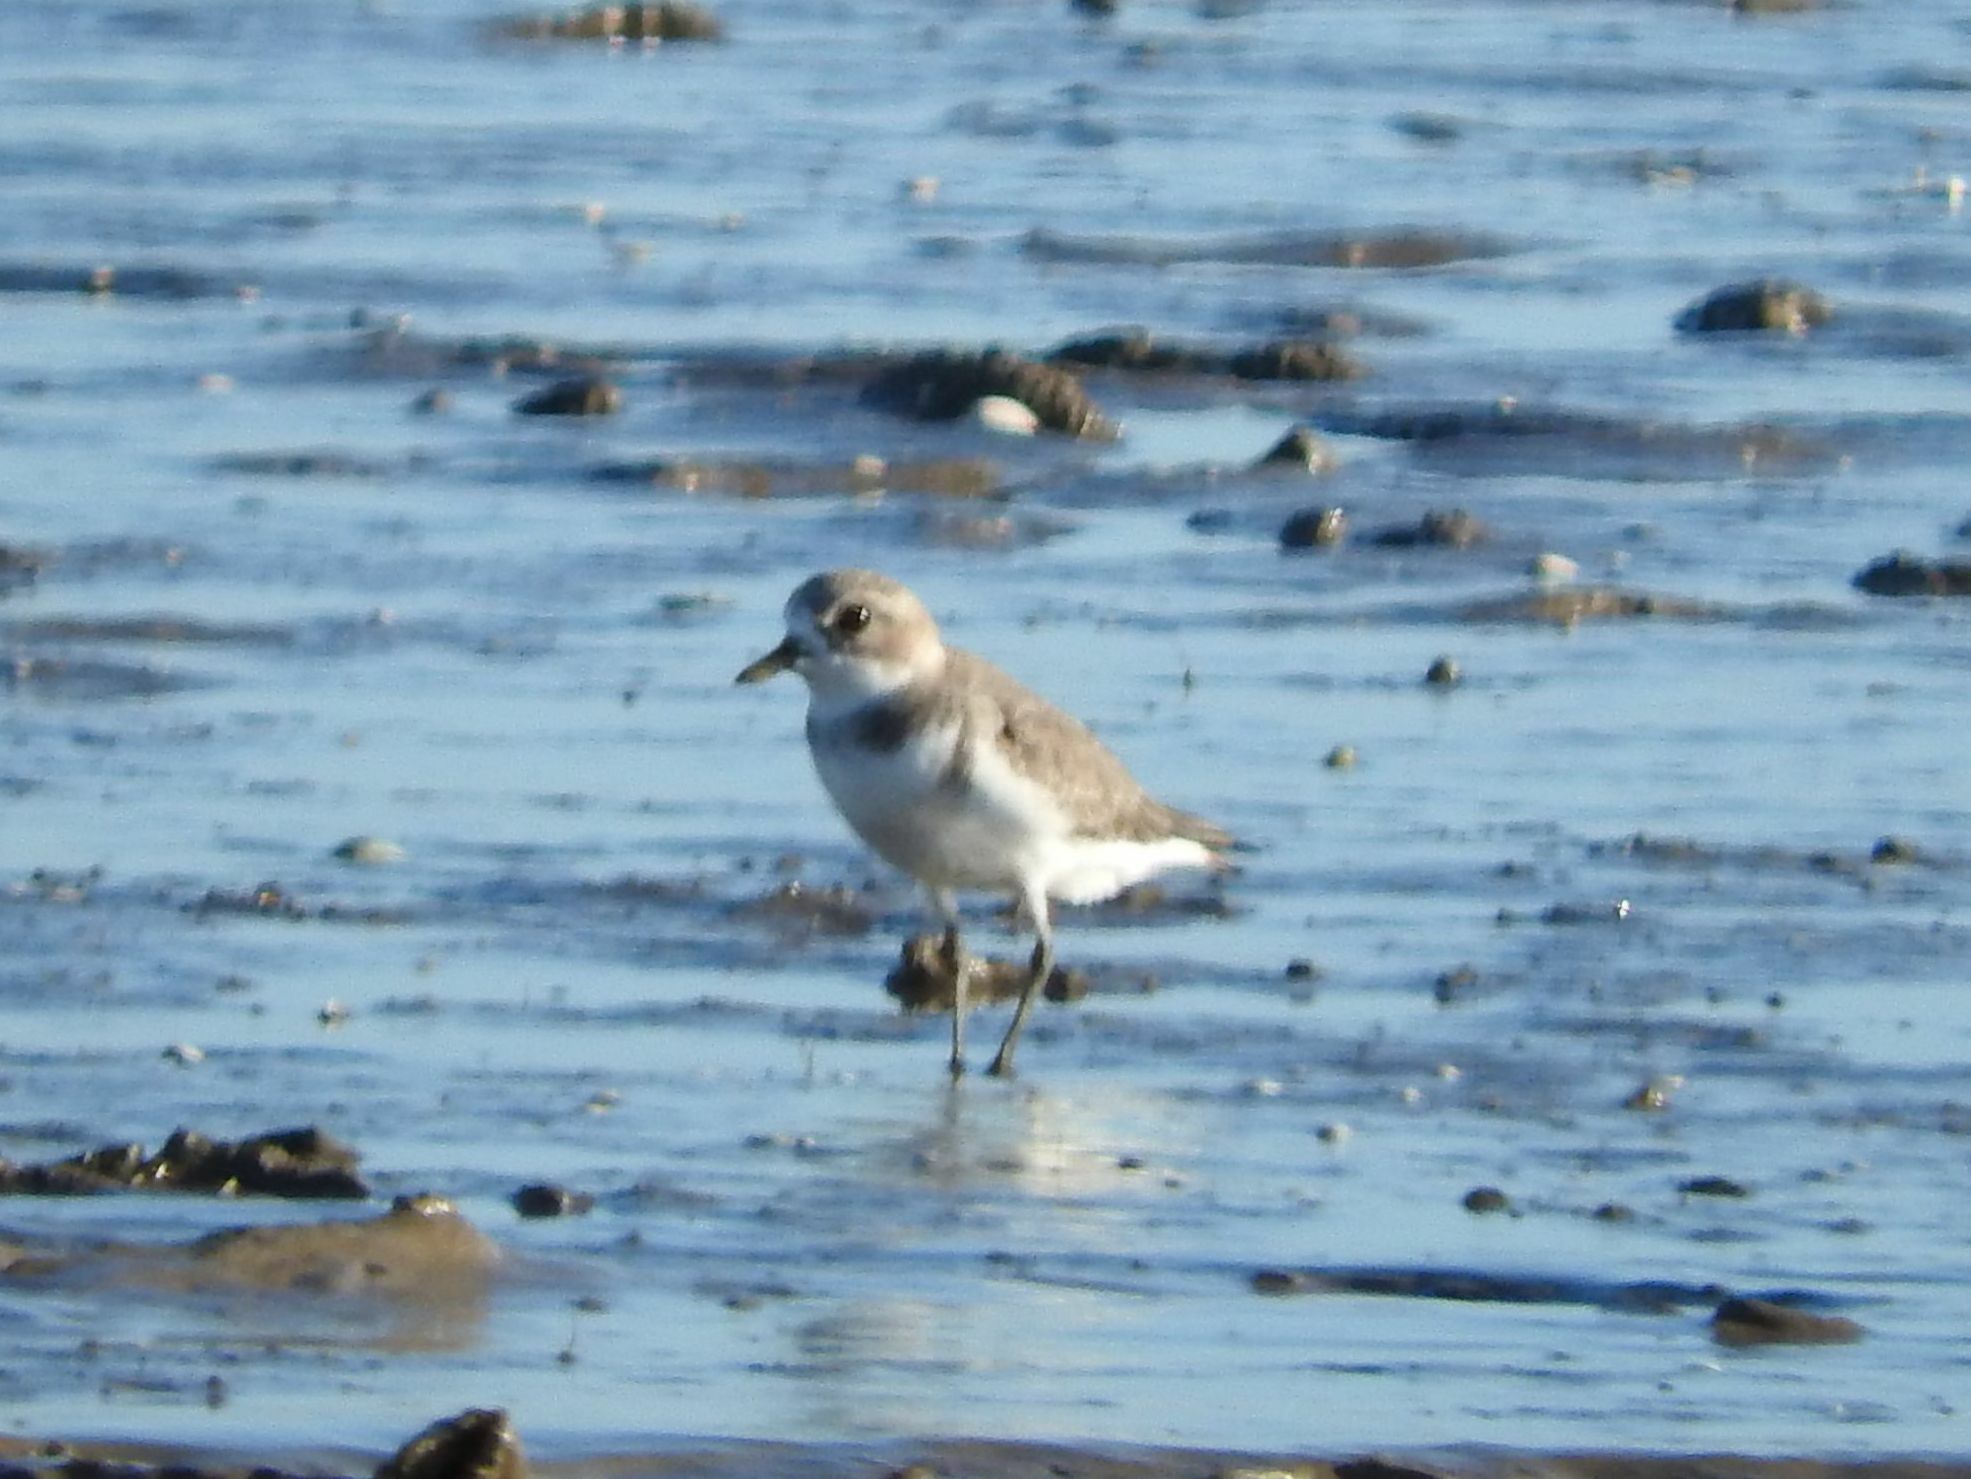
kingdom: Animalia
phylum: Chordata
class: Aves
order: Charadriiformes
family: Charadriidae
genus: Anarhynchus
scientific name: Anarhynchus
